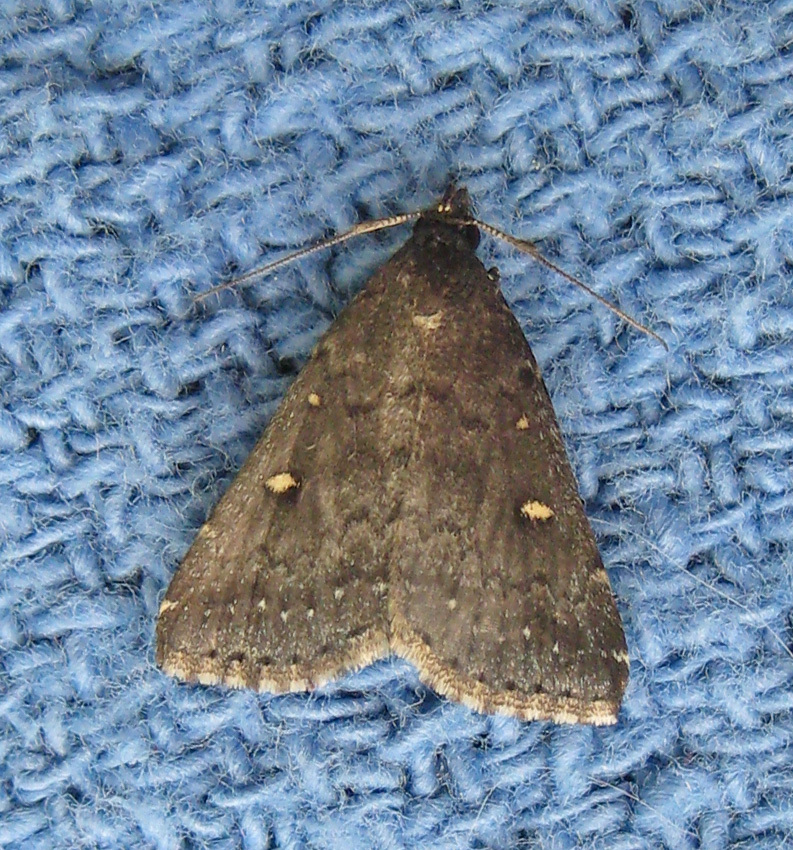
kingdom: Animalia
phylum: Arthropoda
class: Insecta
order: Lepidoptera
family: Erebidae
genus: Tetanolita
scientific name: Tetanolita mynesalis
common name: Smoky tetanolita moth
